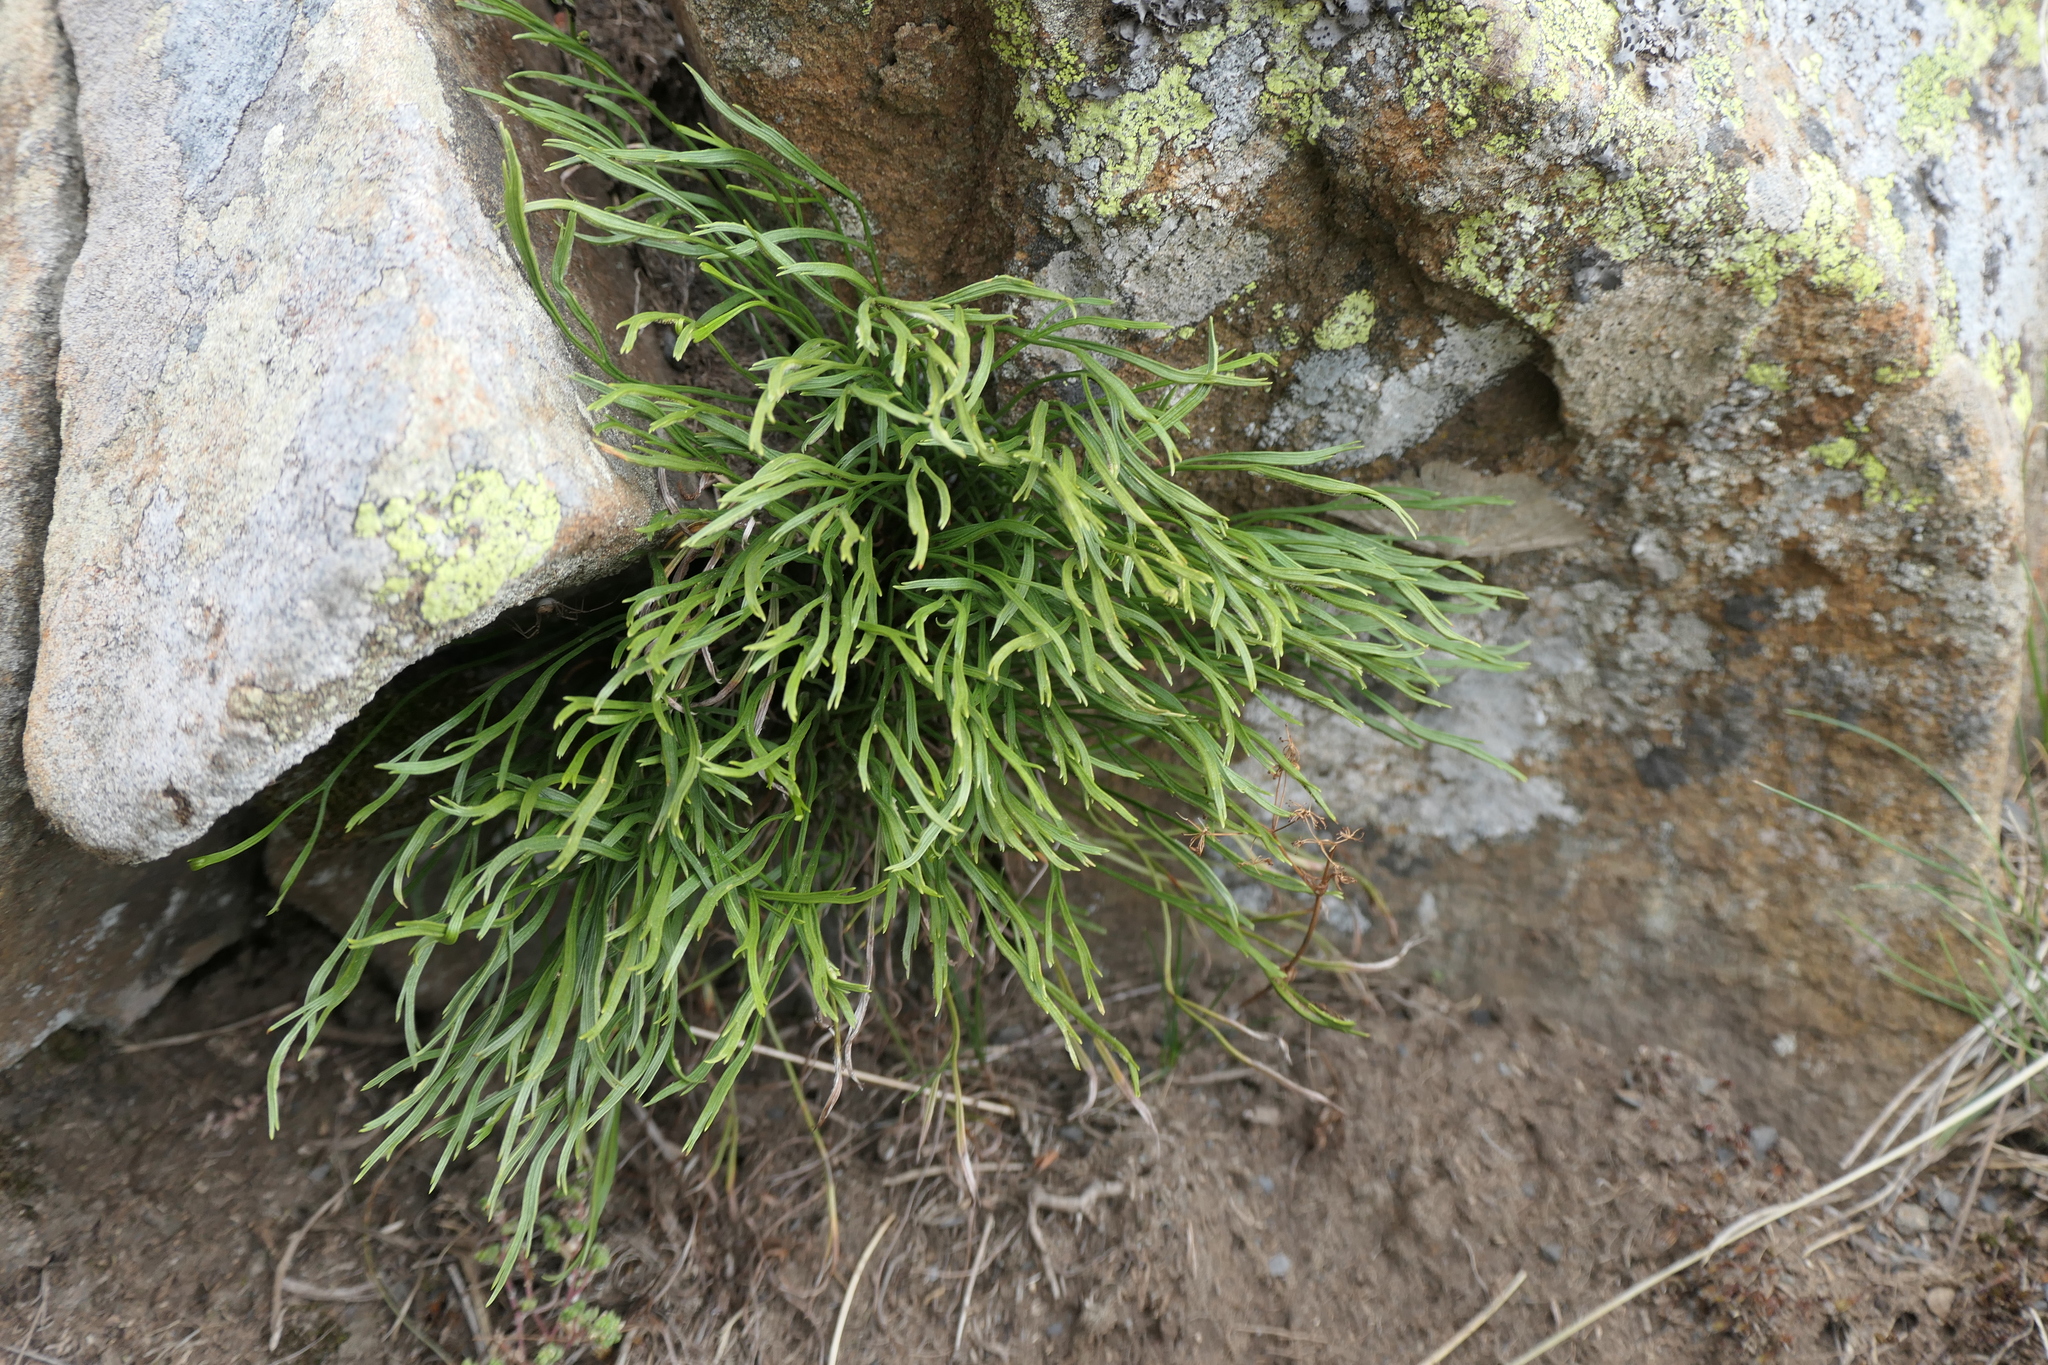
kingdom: Plantae
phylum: Tracheophyta
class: Polypodiopsida
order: Polypodiales
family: Aspleniaceae
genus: Asplenium
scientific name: Asplenium septentrionale
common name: Forked spleenwort
